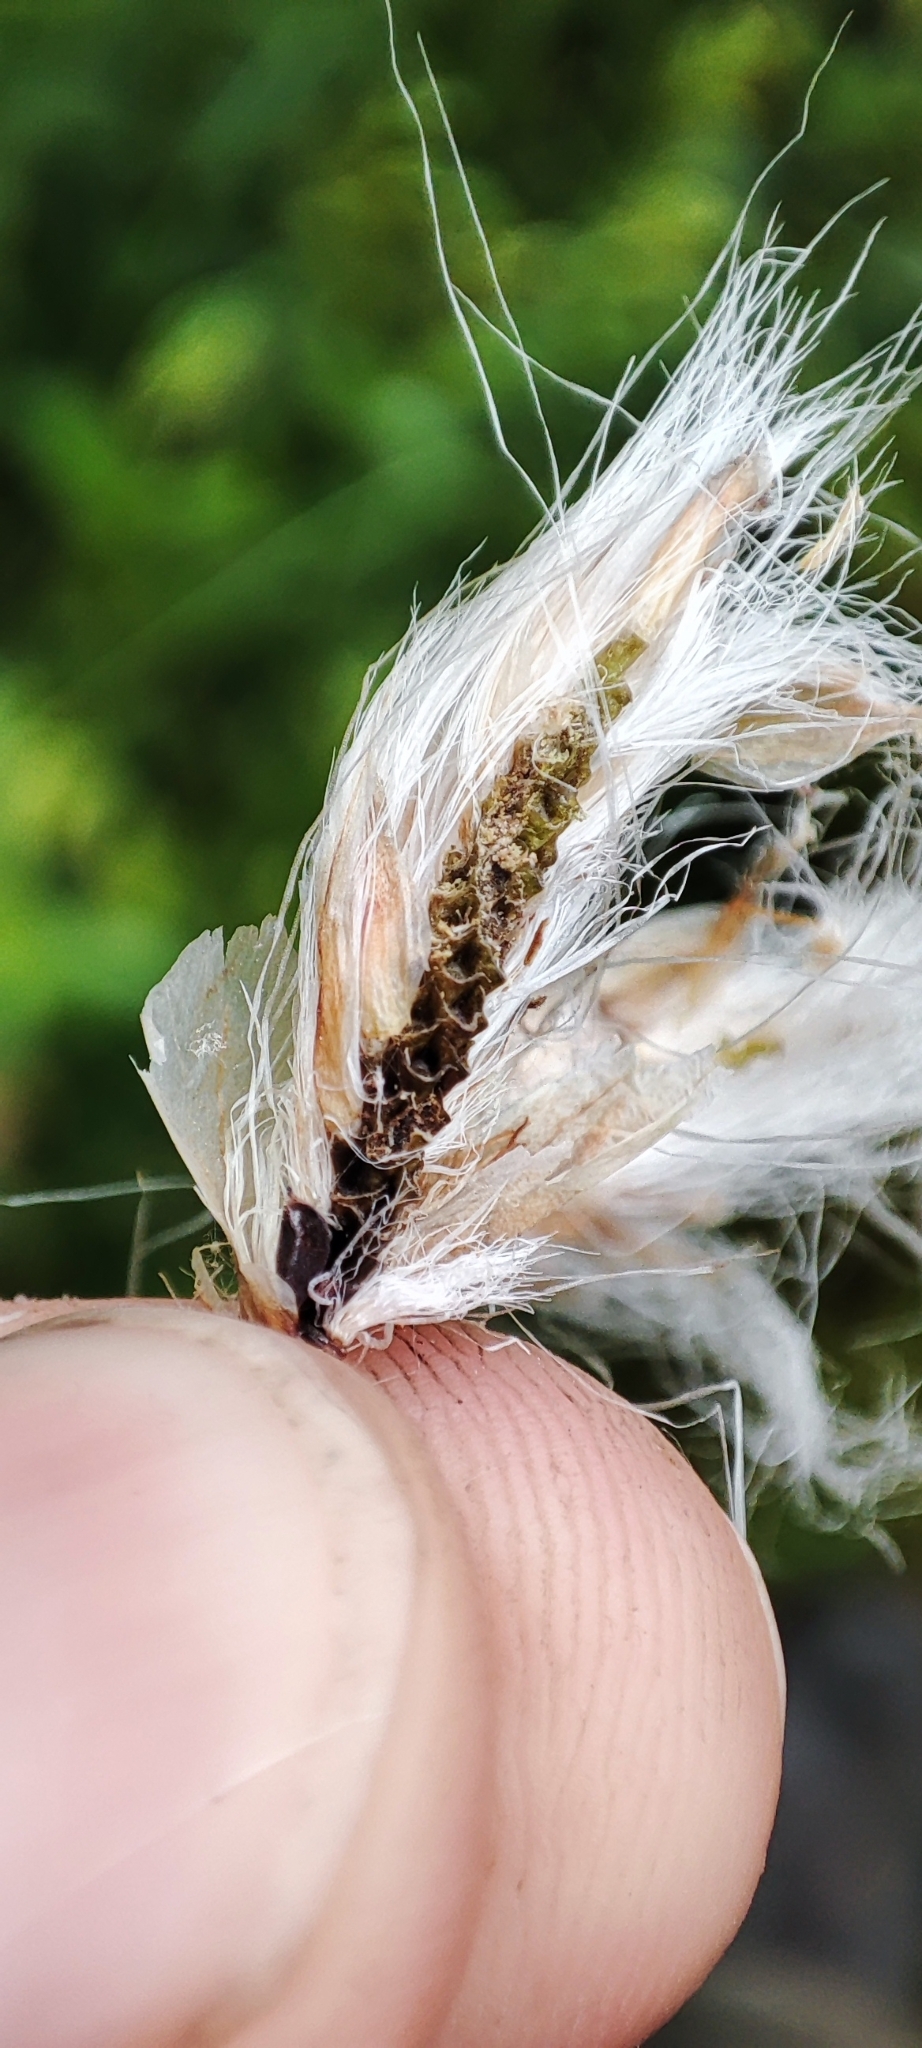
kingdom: Plantae
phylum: Tracheophyta
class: Liliopsida
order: Poales
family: Cyperaceae
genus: Eriophorum
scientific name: Eriophorum angustifolium
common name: Common cottongrass
